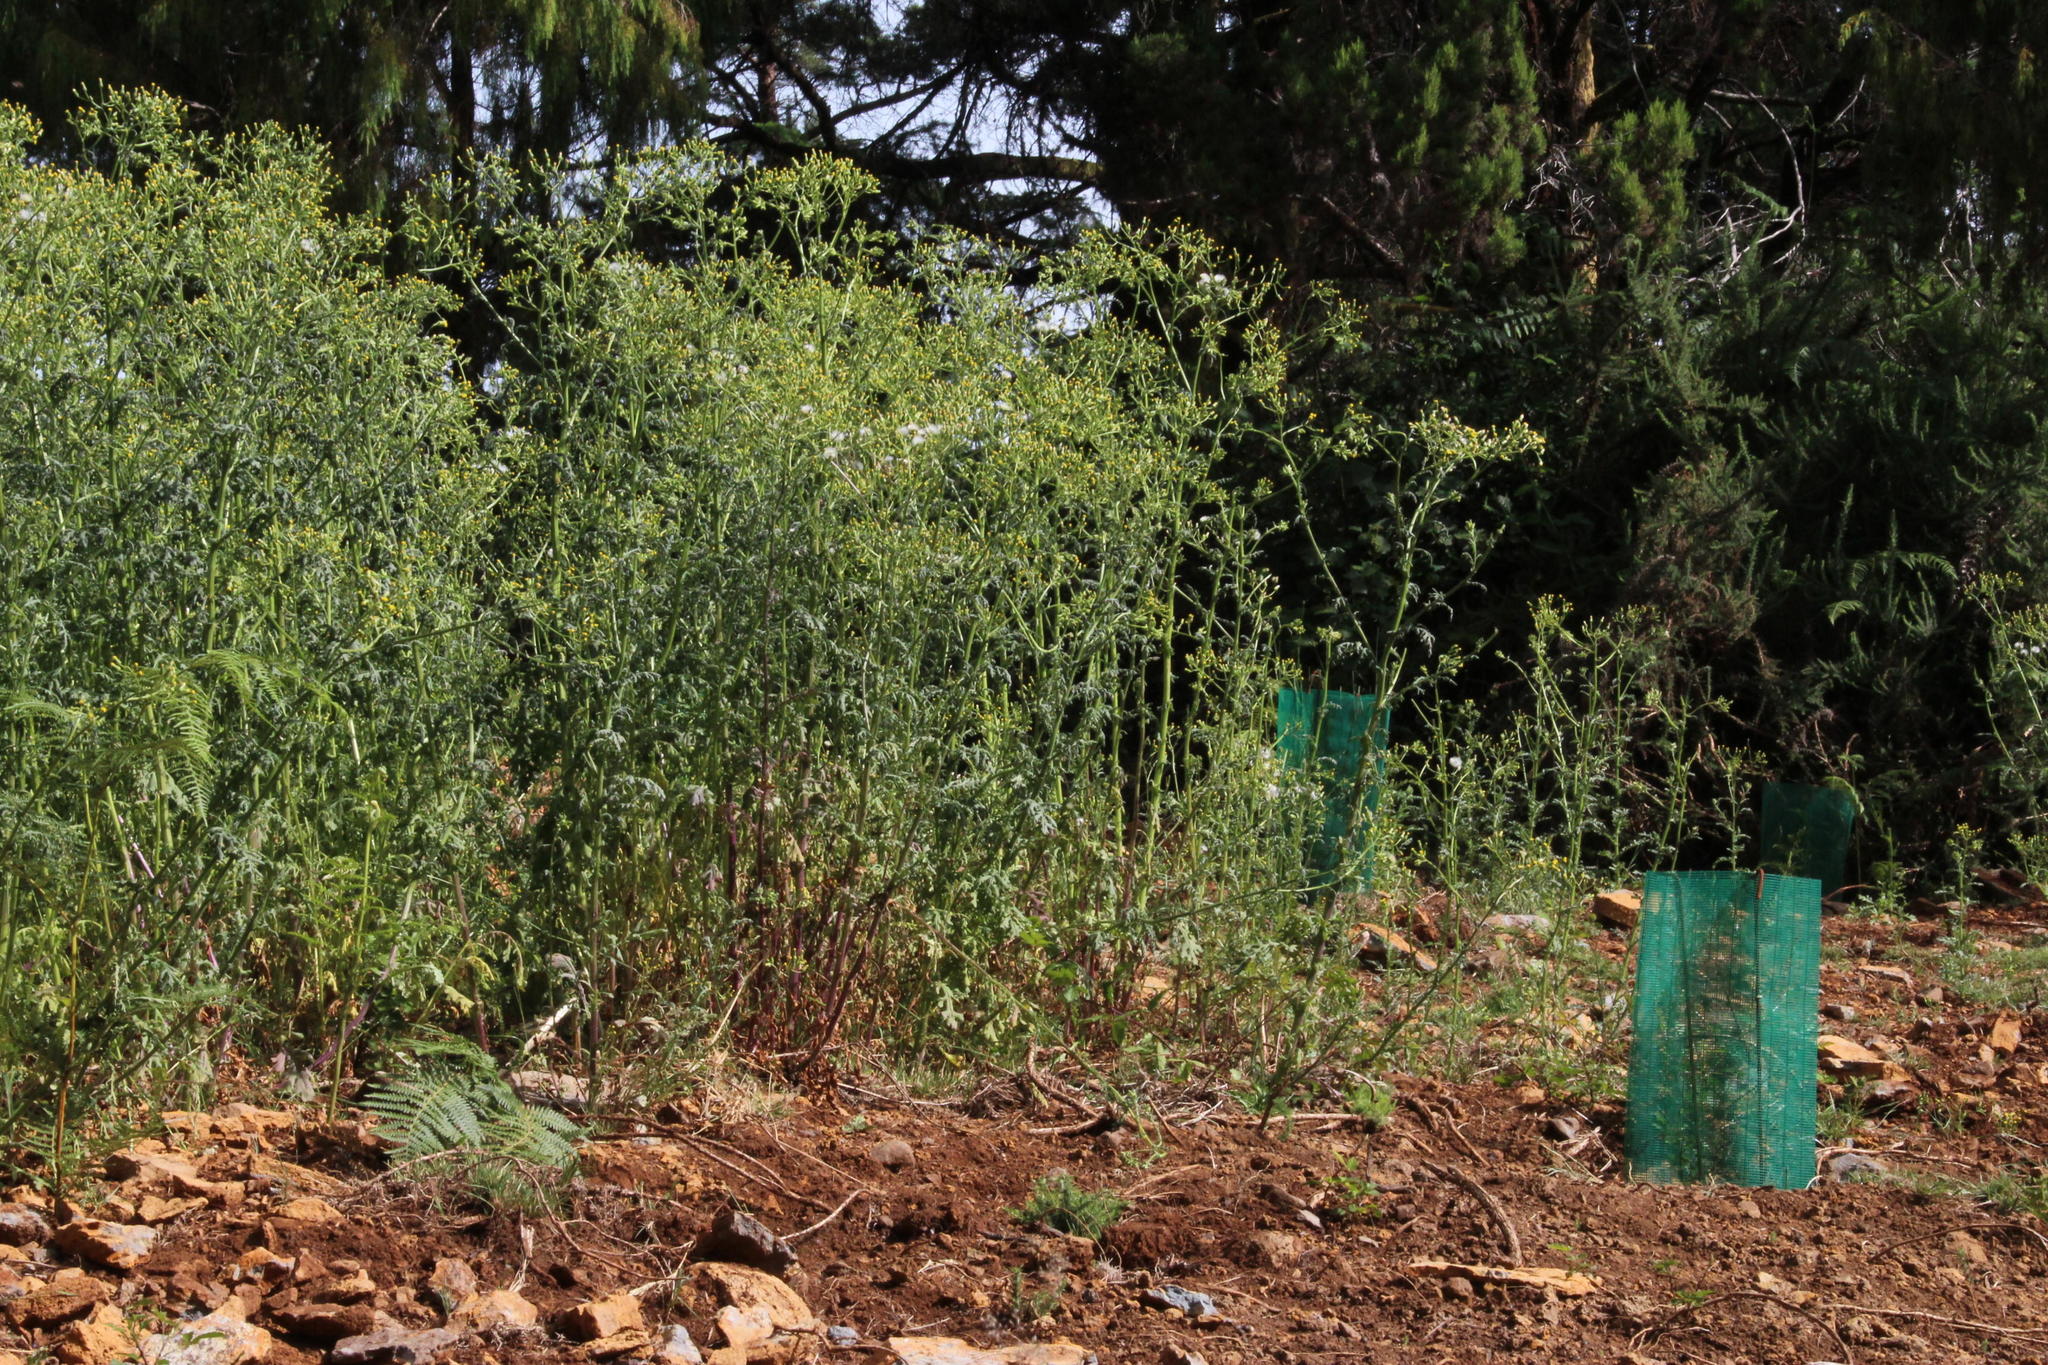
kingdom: Plantae
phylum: Tracheophyta
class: Magnoliopsida
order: Asterales
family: Asteraceae
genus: Senecio
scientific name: Senecio sylvaticus
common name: Woodland ragwort
